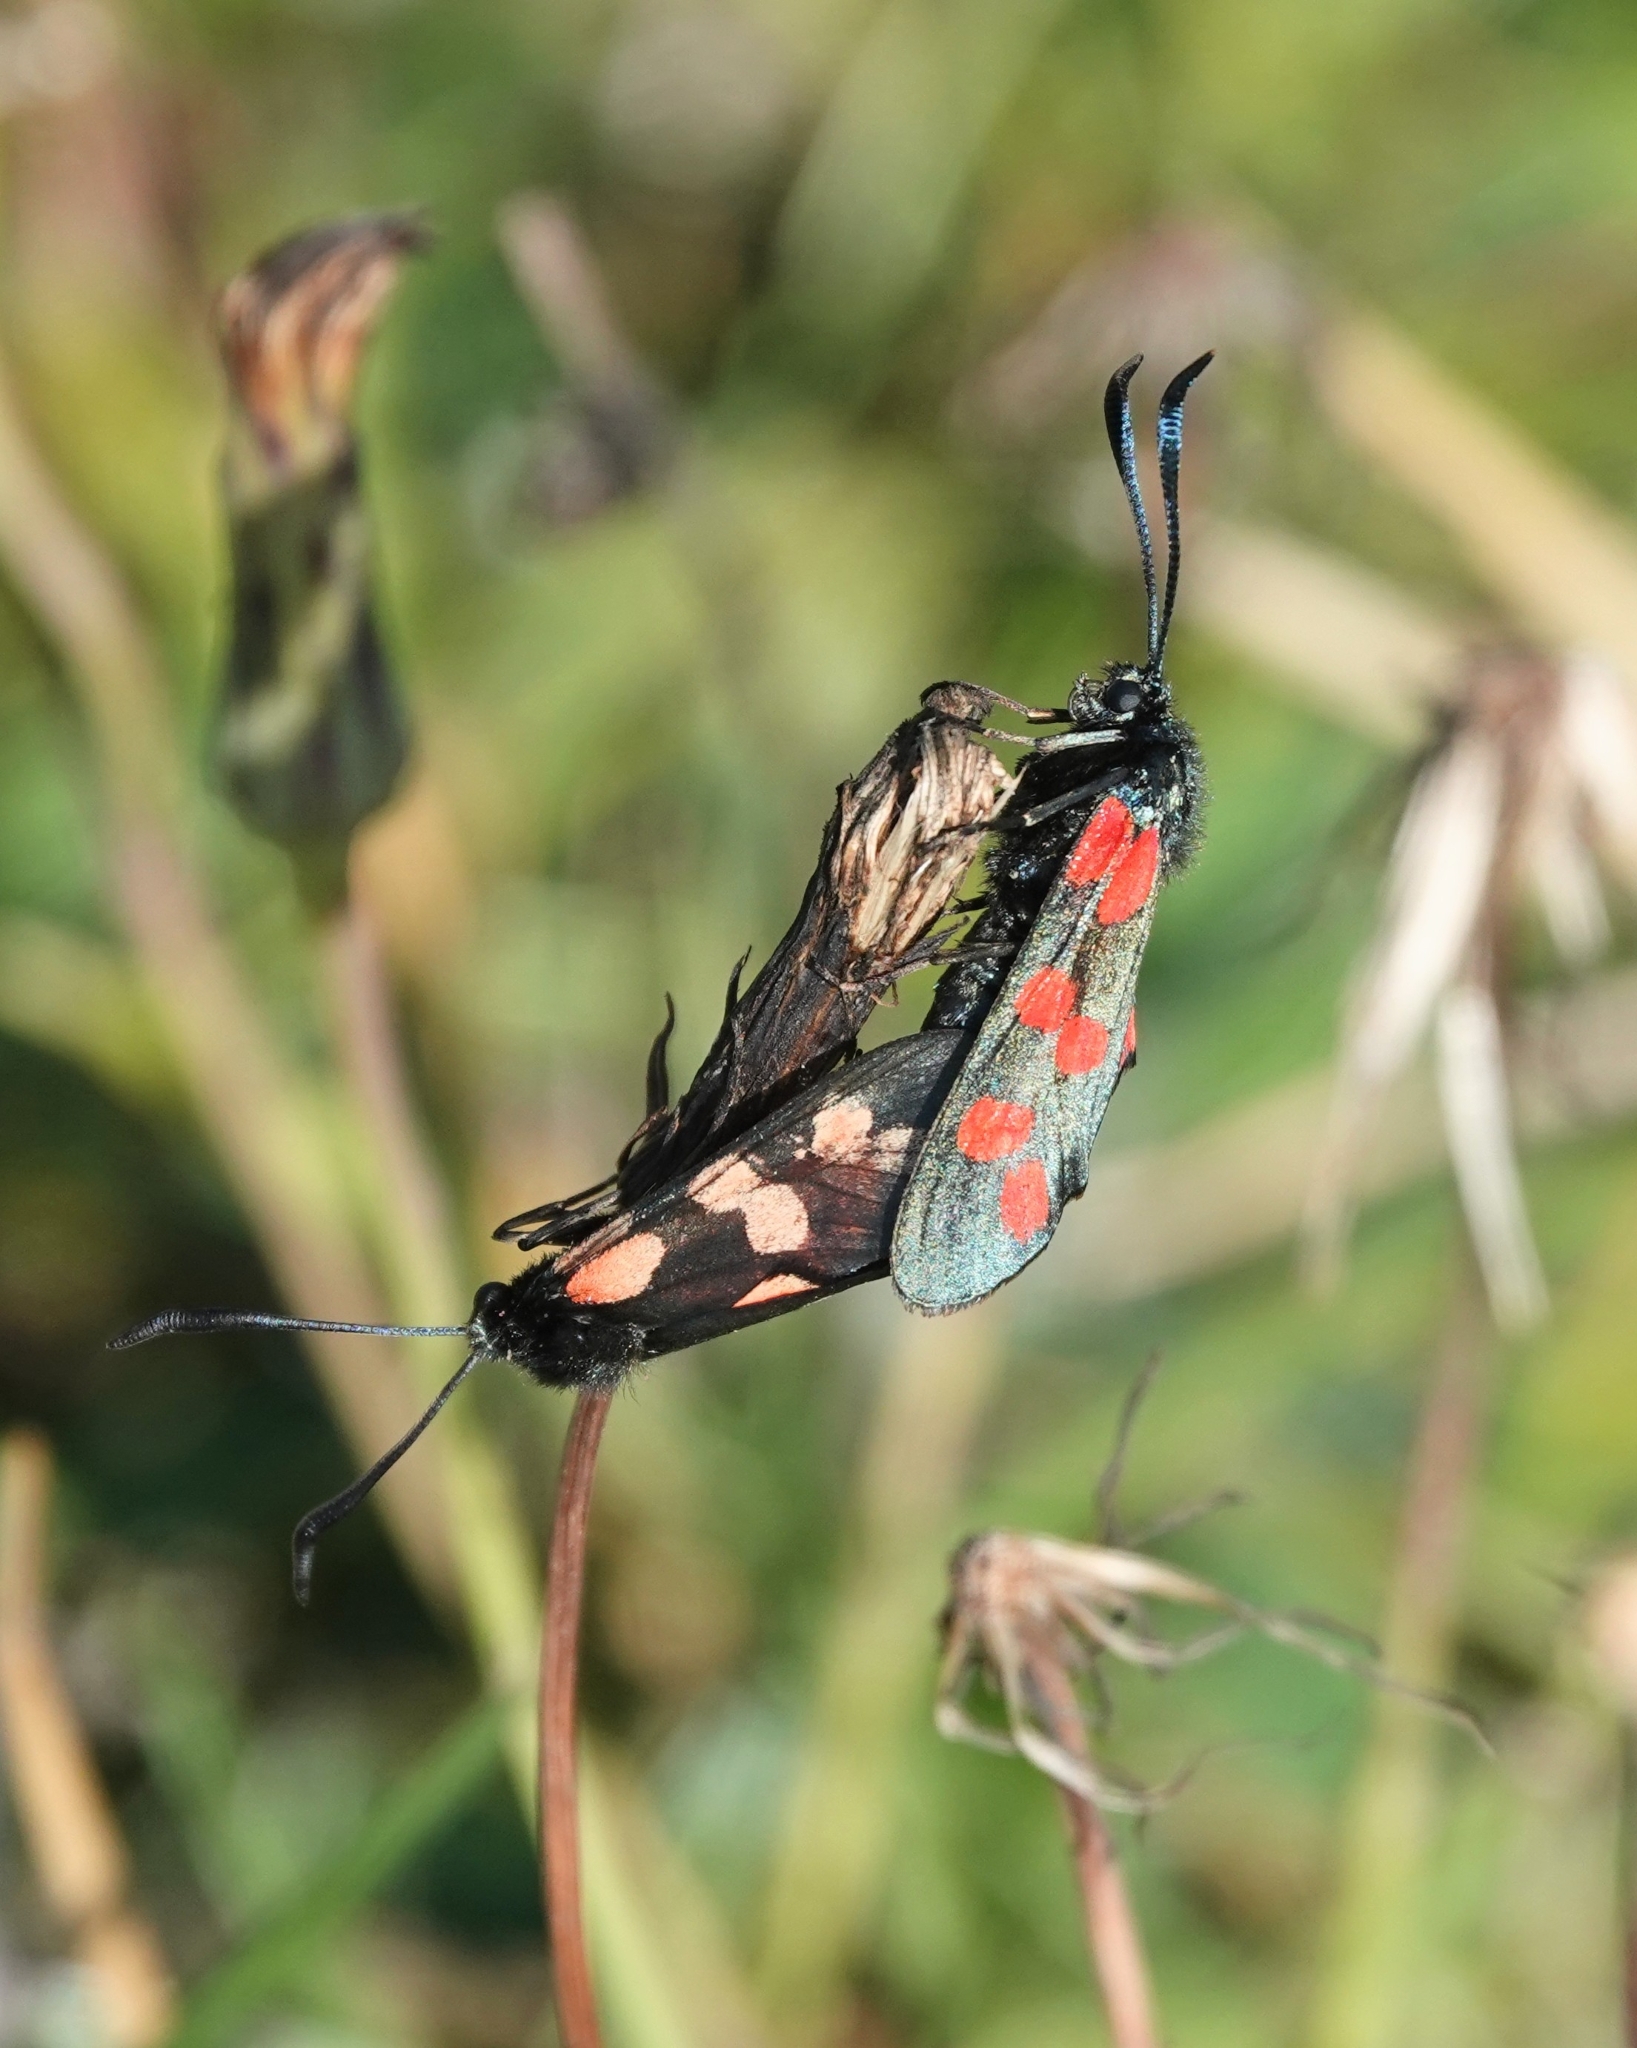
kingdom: Animalia
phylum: Arthropoda
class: Insecta
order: Lepidoptera
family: Zygaenidae
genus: Zygaena
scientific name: Zygaena filipendulae
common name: Six-spot burnet
